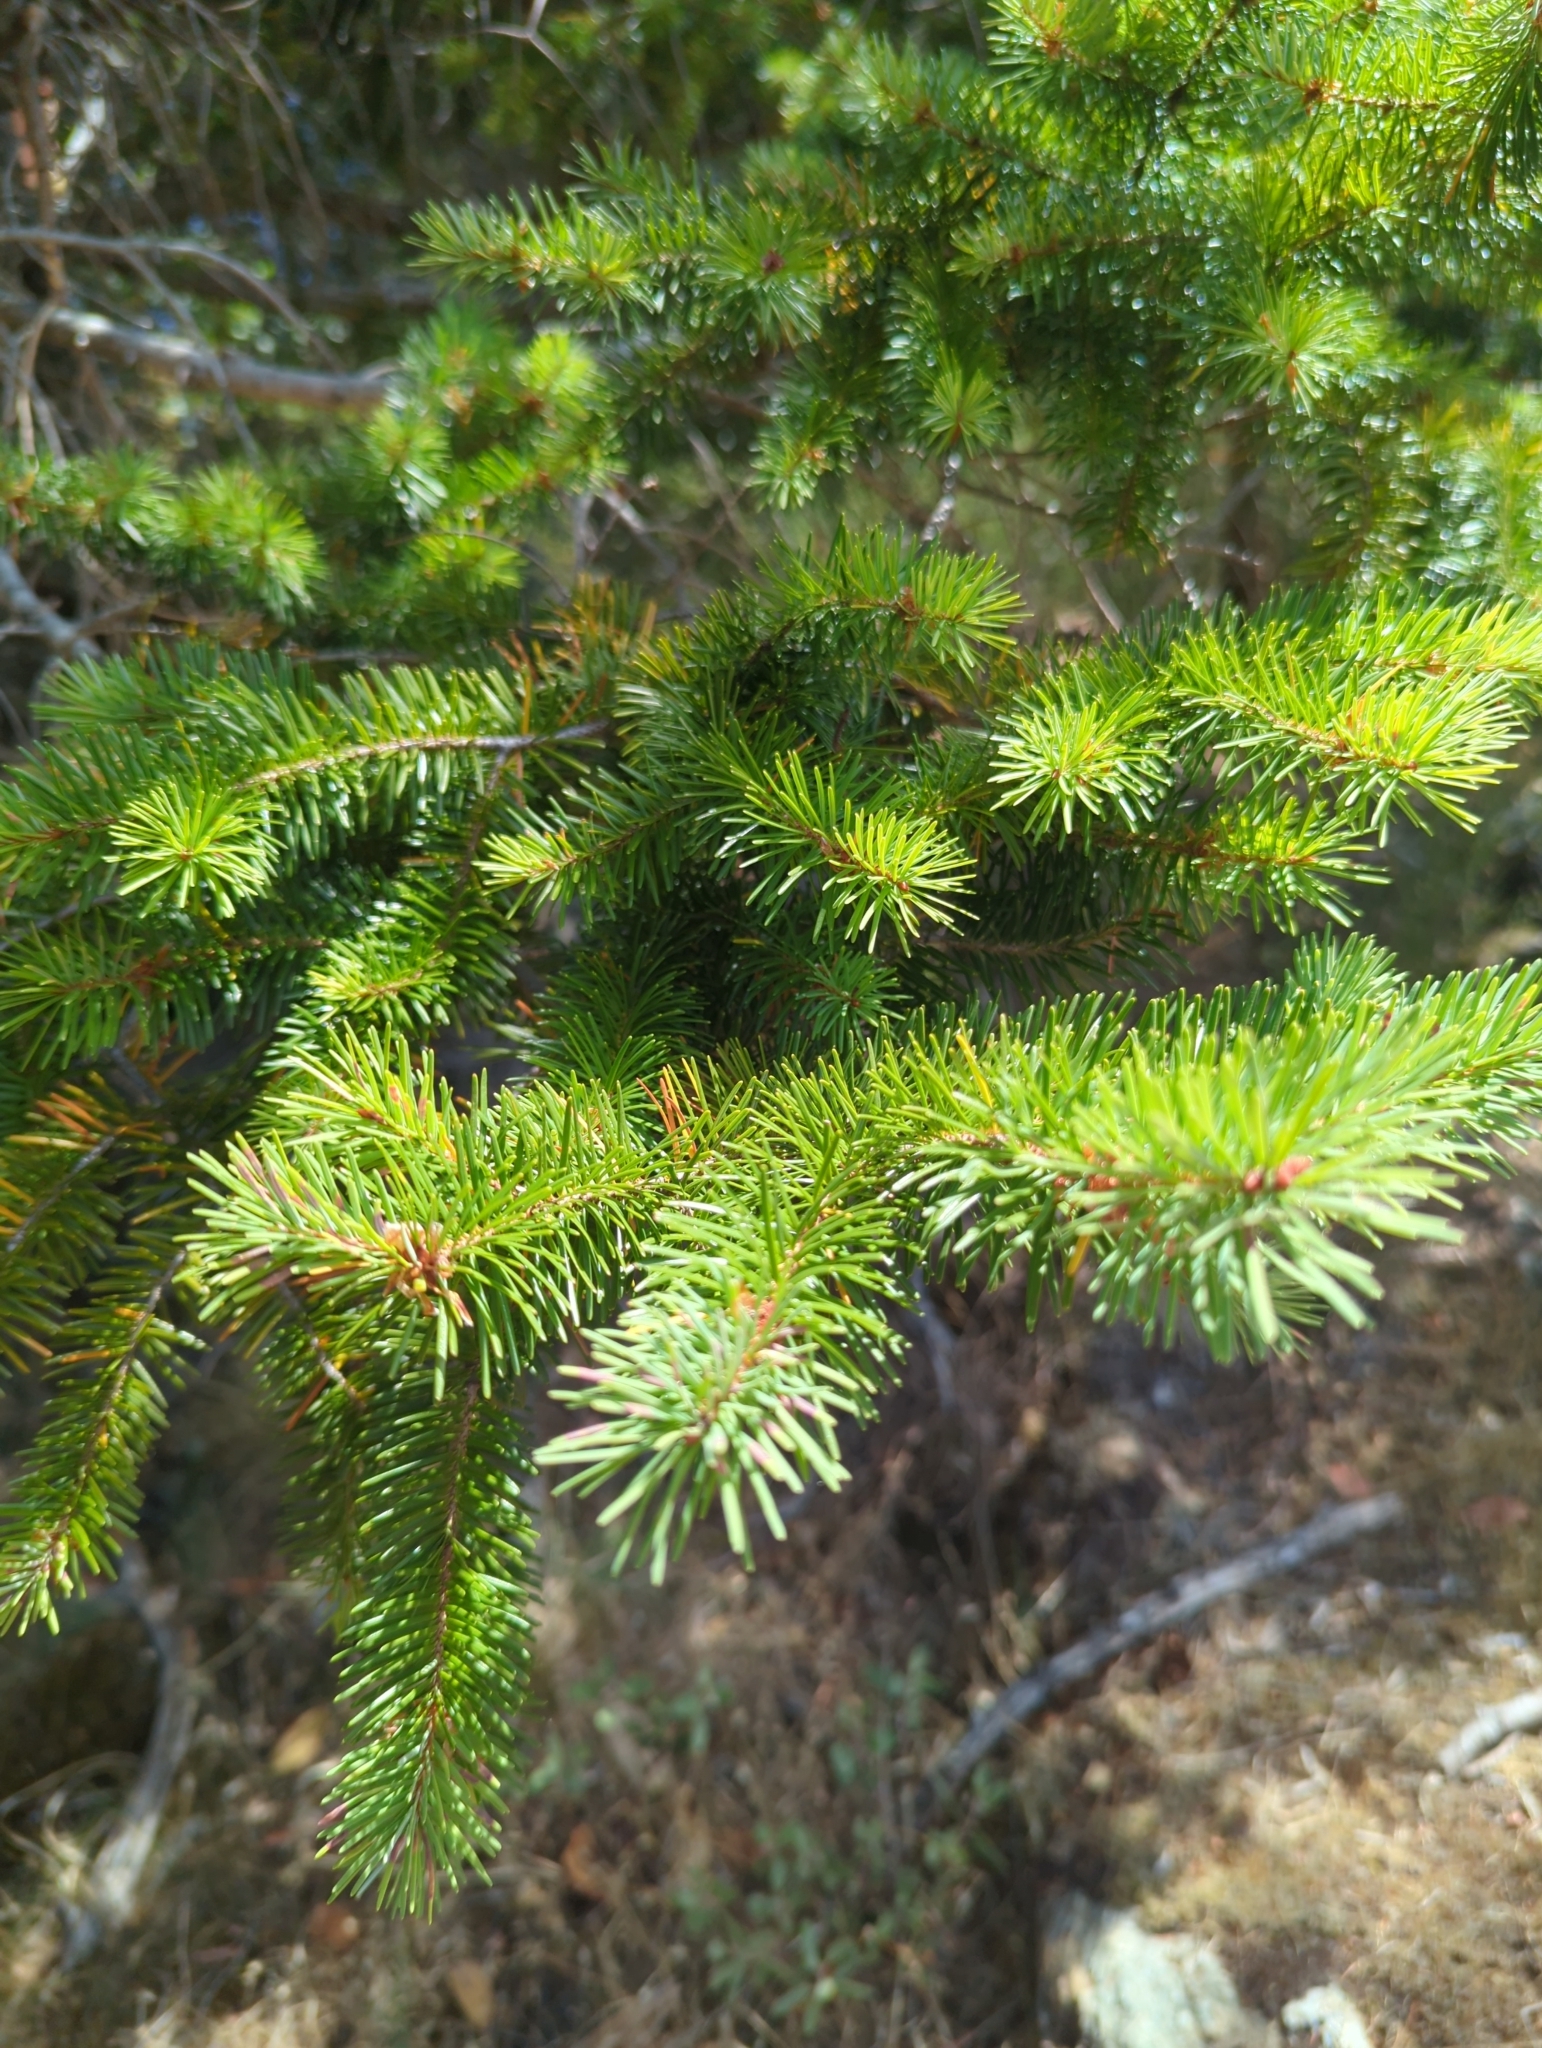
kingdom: Plantae
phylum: Tracheophyta
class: Pinopsida
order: Pinales
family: Pinaceae
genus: Pseudotsuga
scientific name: Pseudotsuga menziesii
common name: Douglas fir
